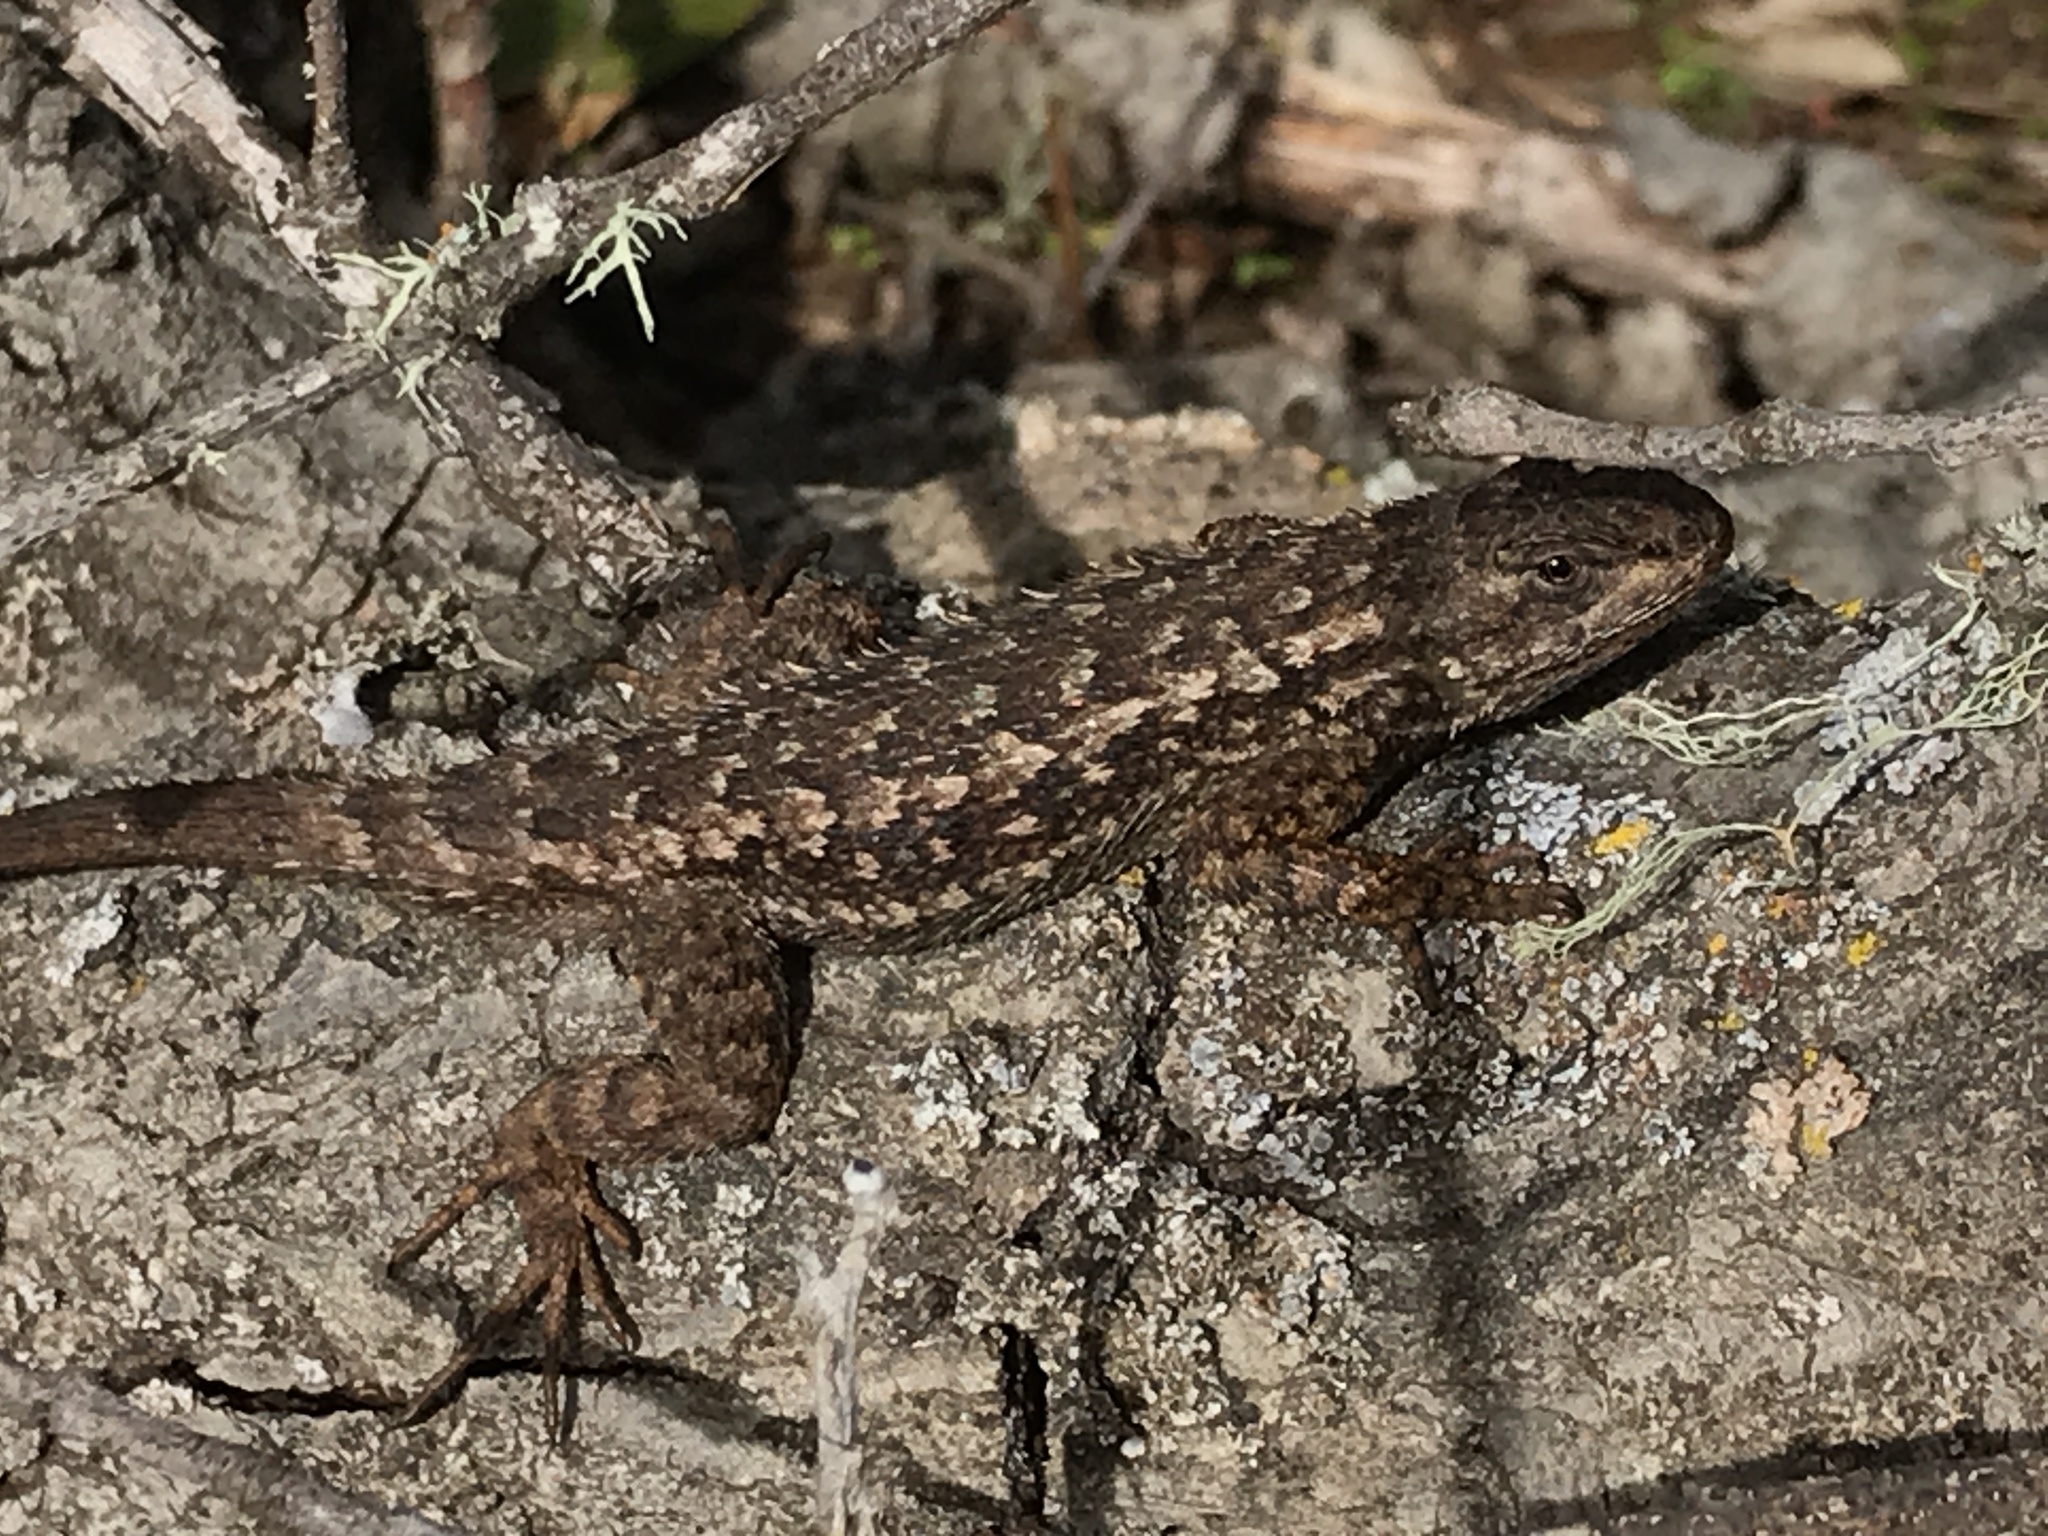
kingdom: Animalia
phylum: Chordata
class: Squamata
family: Phrynosomatidae
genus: Sceloporus
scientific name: Sceloporus occidentalis
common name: Western fence lizard
